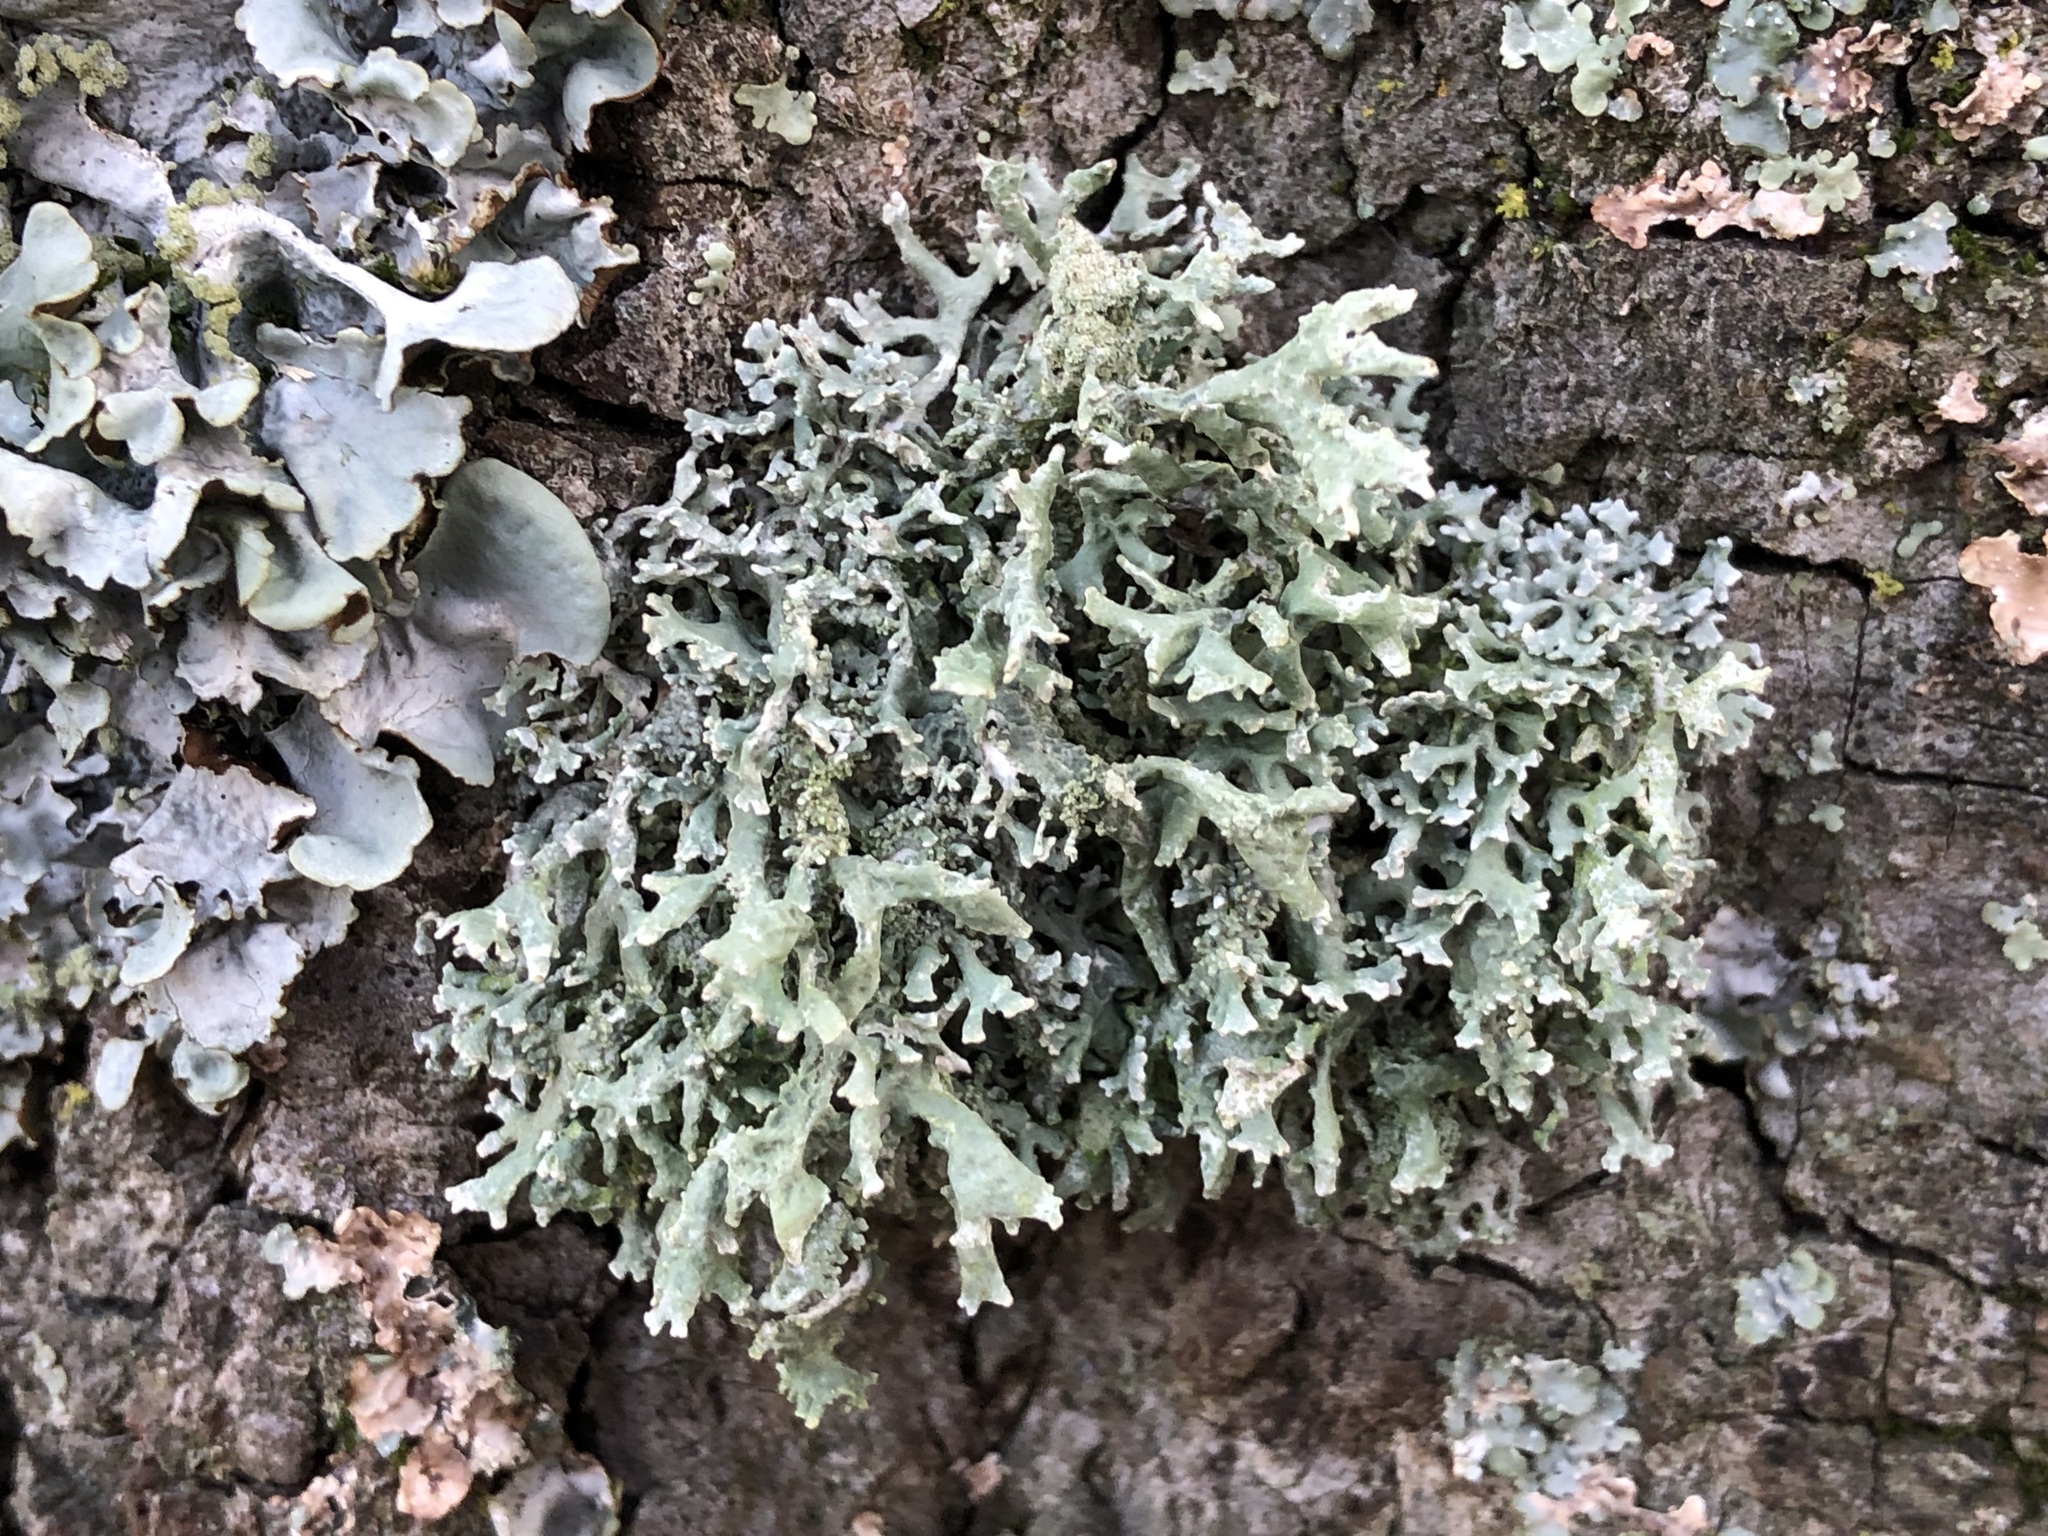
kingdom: Fungi
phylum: Ascomycota
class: Lecanoromycetes
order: Lecanorales
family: Parmeliaceae
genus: Evernia
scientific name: Evernia prunastri
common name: Oak moss
